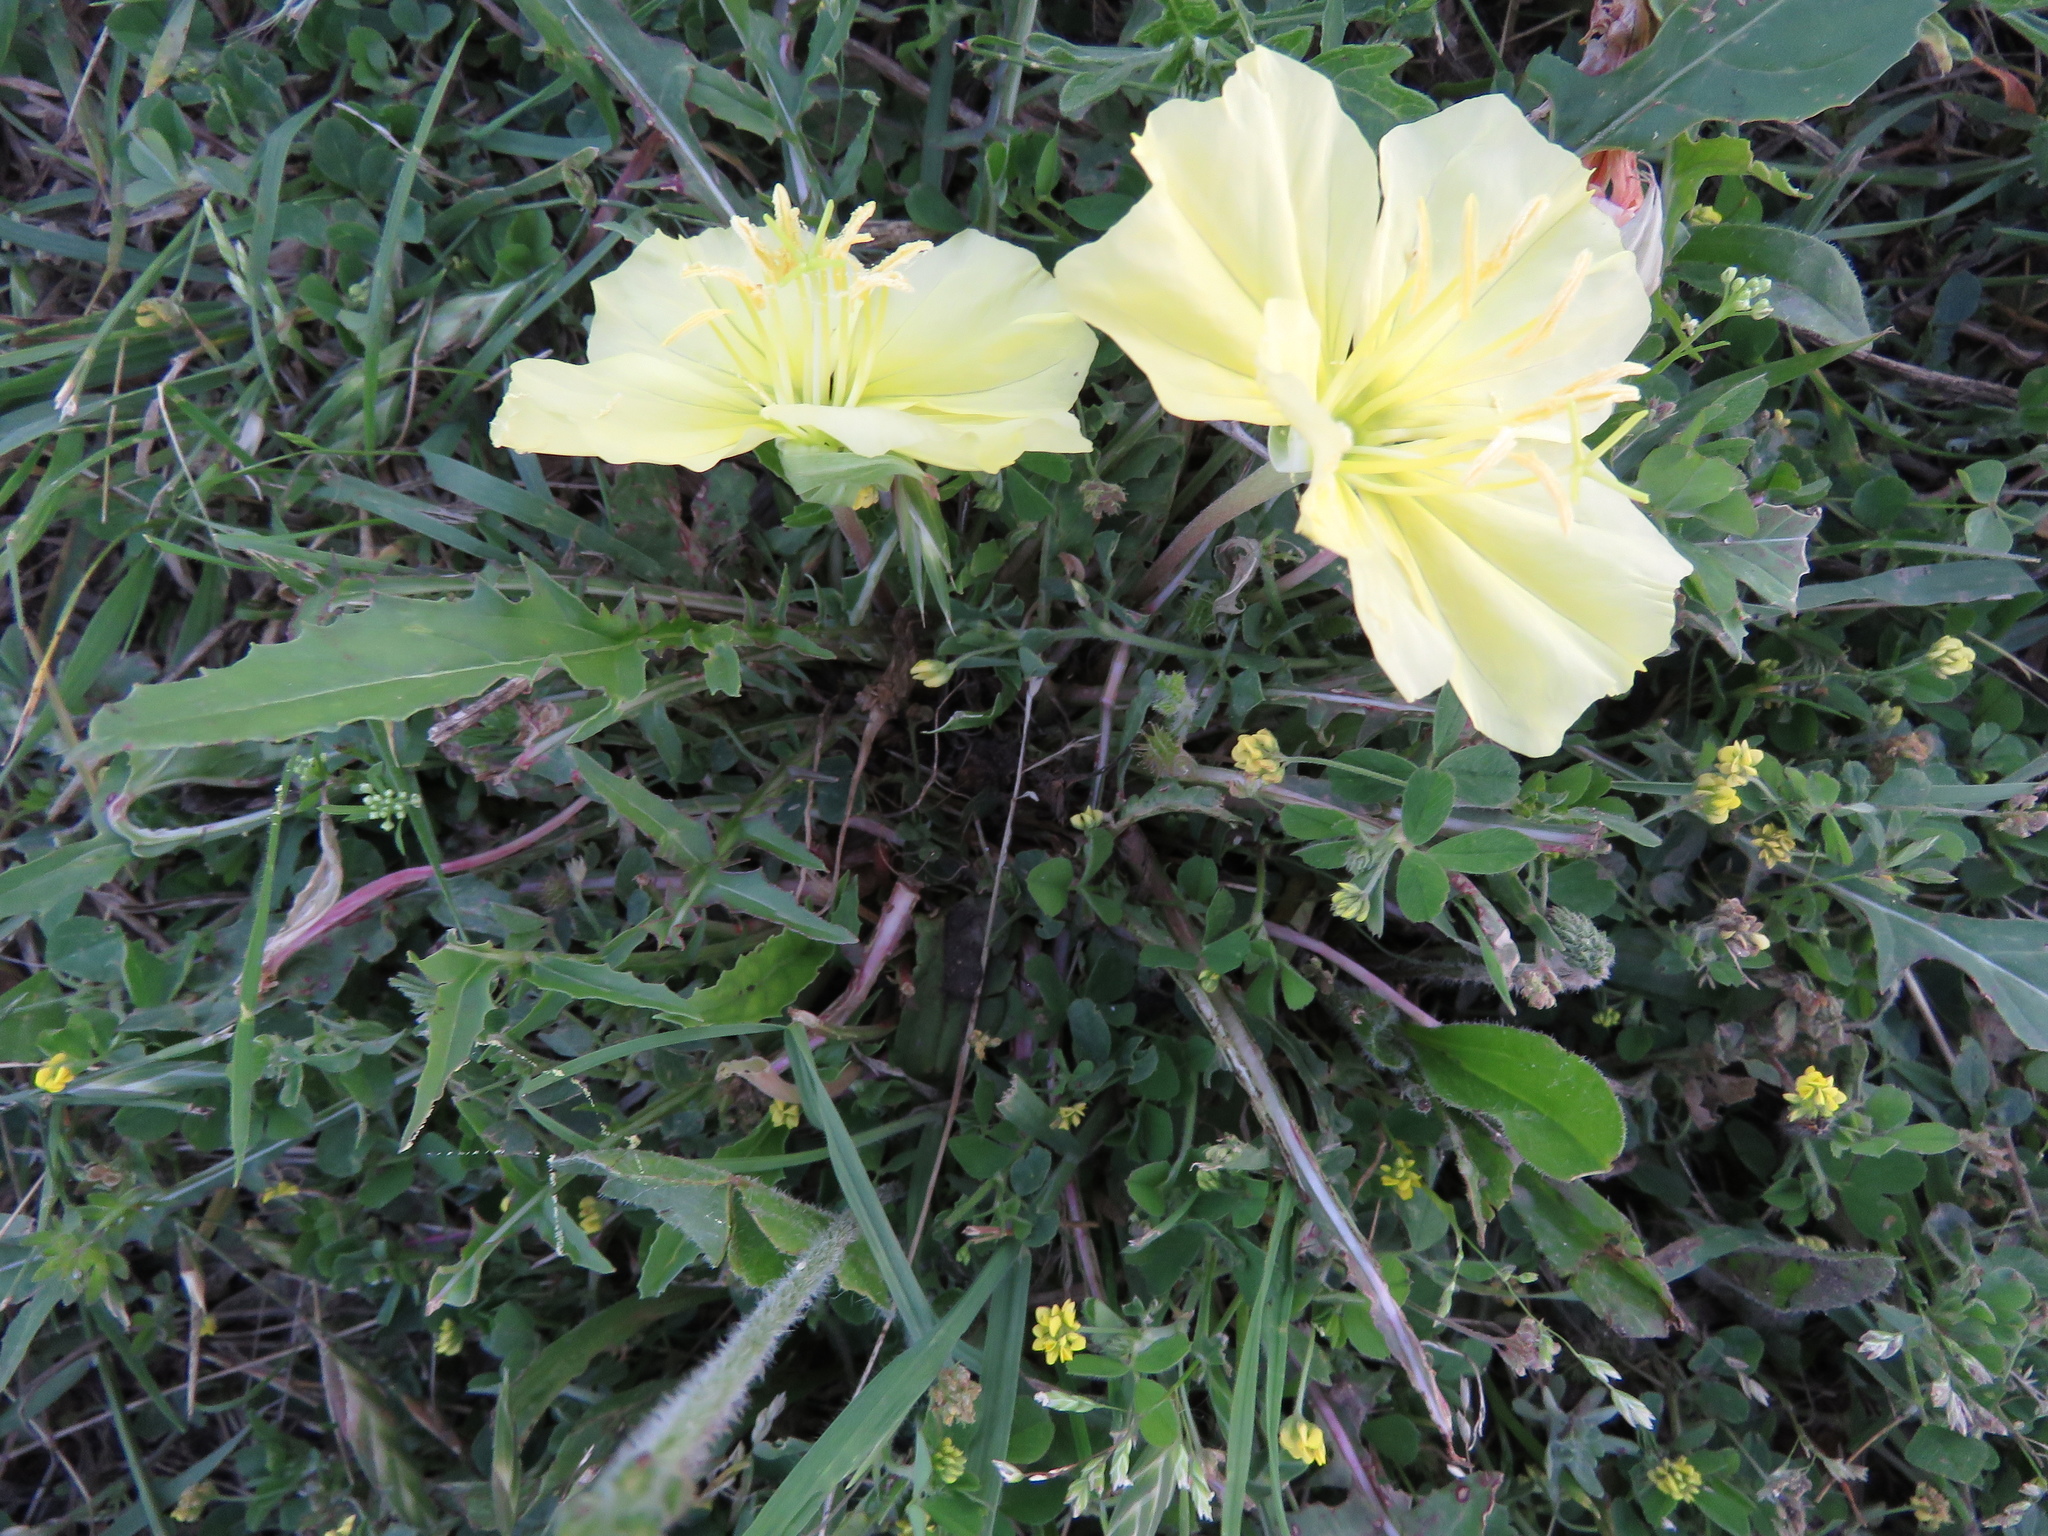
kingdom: Plantae
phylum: Tracheophyta
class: Magnoliopsida
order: Myrtales
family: Onagraceae
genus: Oenothera
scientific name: Oenothera triloba
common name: Sessile evening-primrose
